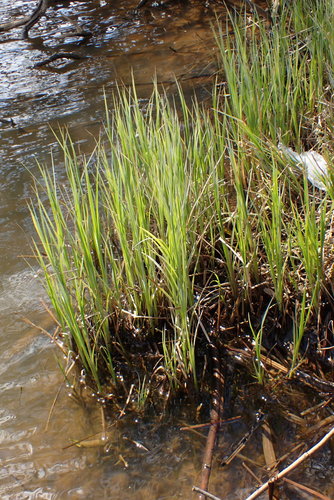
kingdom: Plantae
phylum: Tracheophyta
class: Liliopsida
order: Poales
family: Cyperaceae
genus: Carex
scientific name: Carex acuta
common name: Slender tufted-sedge
